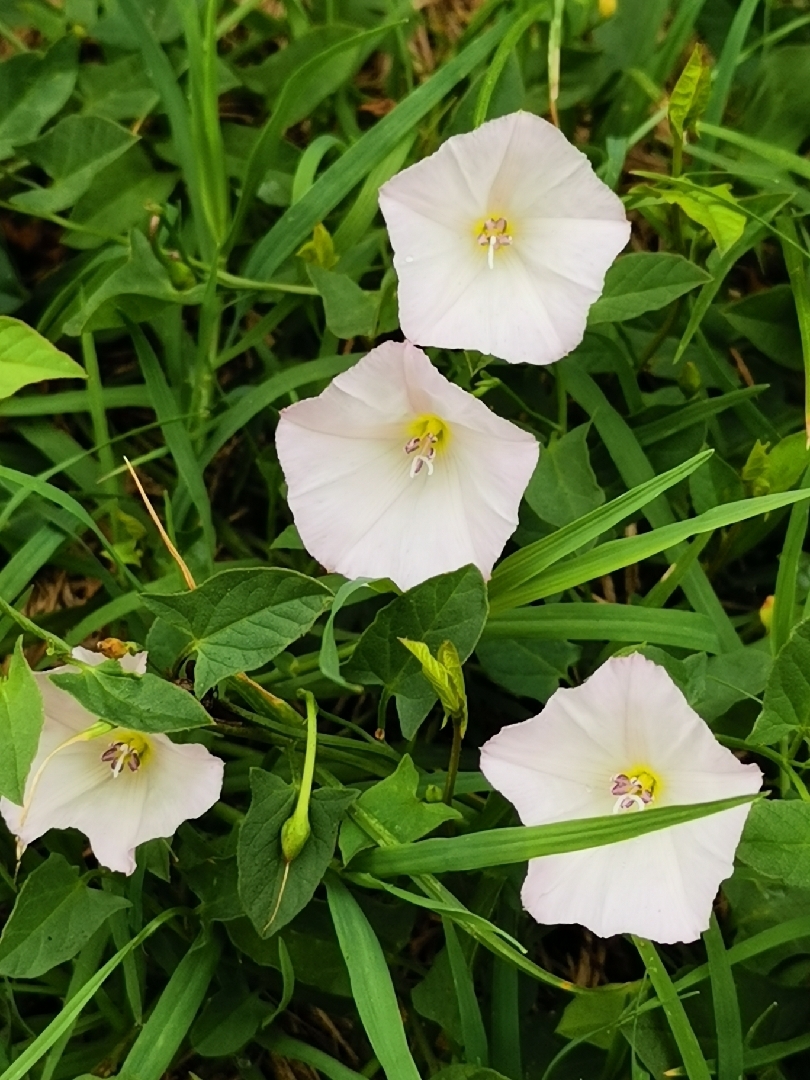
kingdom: Plantae
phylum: Tracheophyta
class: Magnoliopsida
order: Solanales
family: Convolvulaceae
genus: Convolvulus
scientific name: Convolvulus arvensis
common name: Field bindweed
